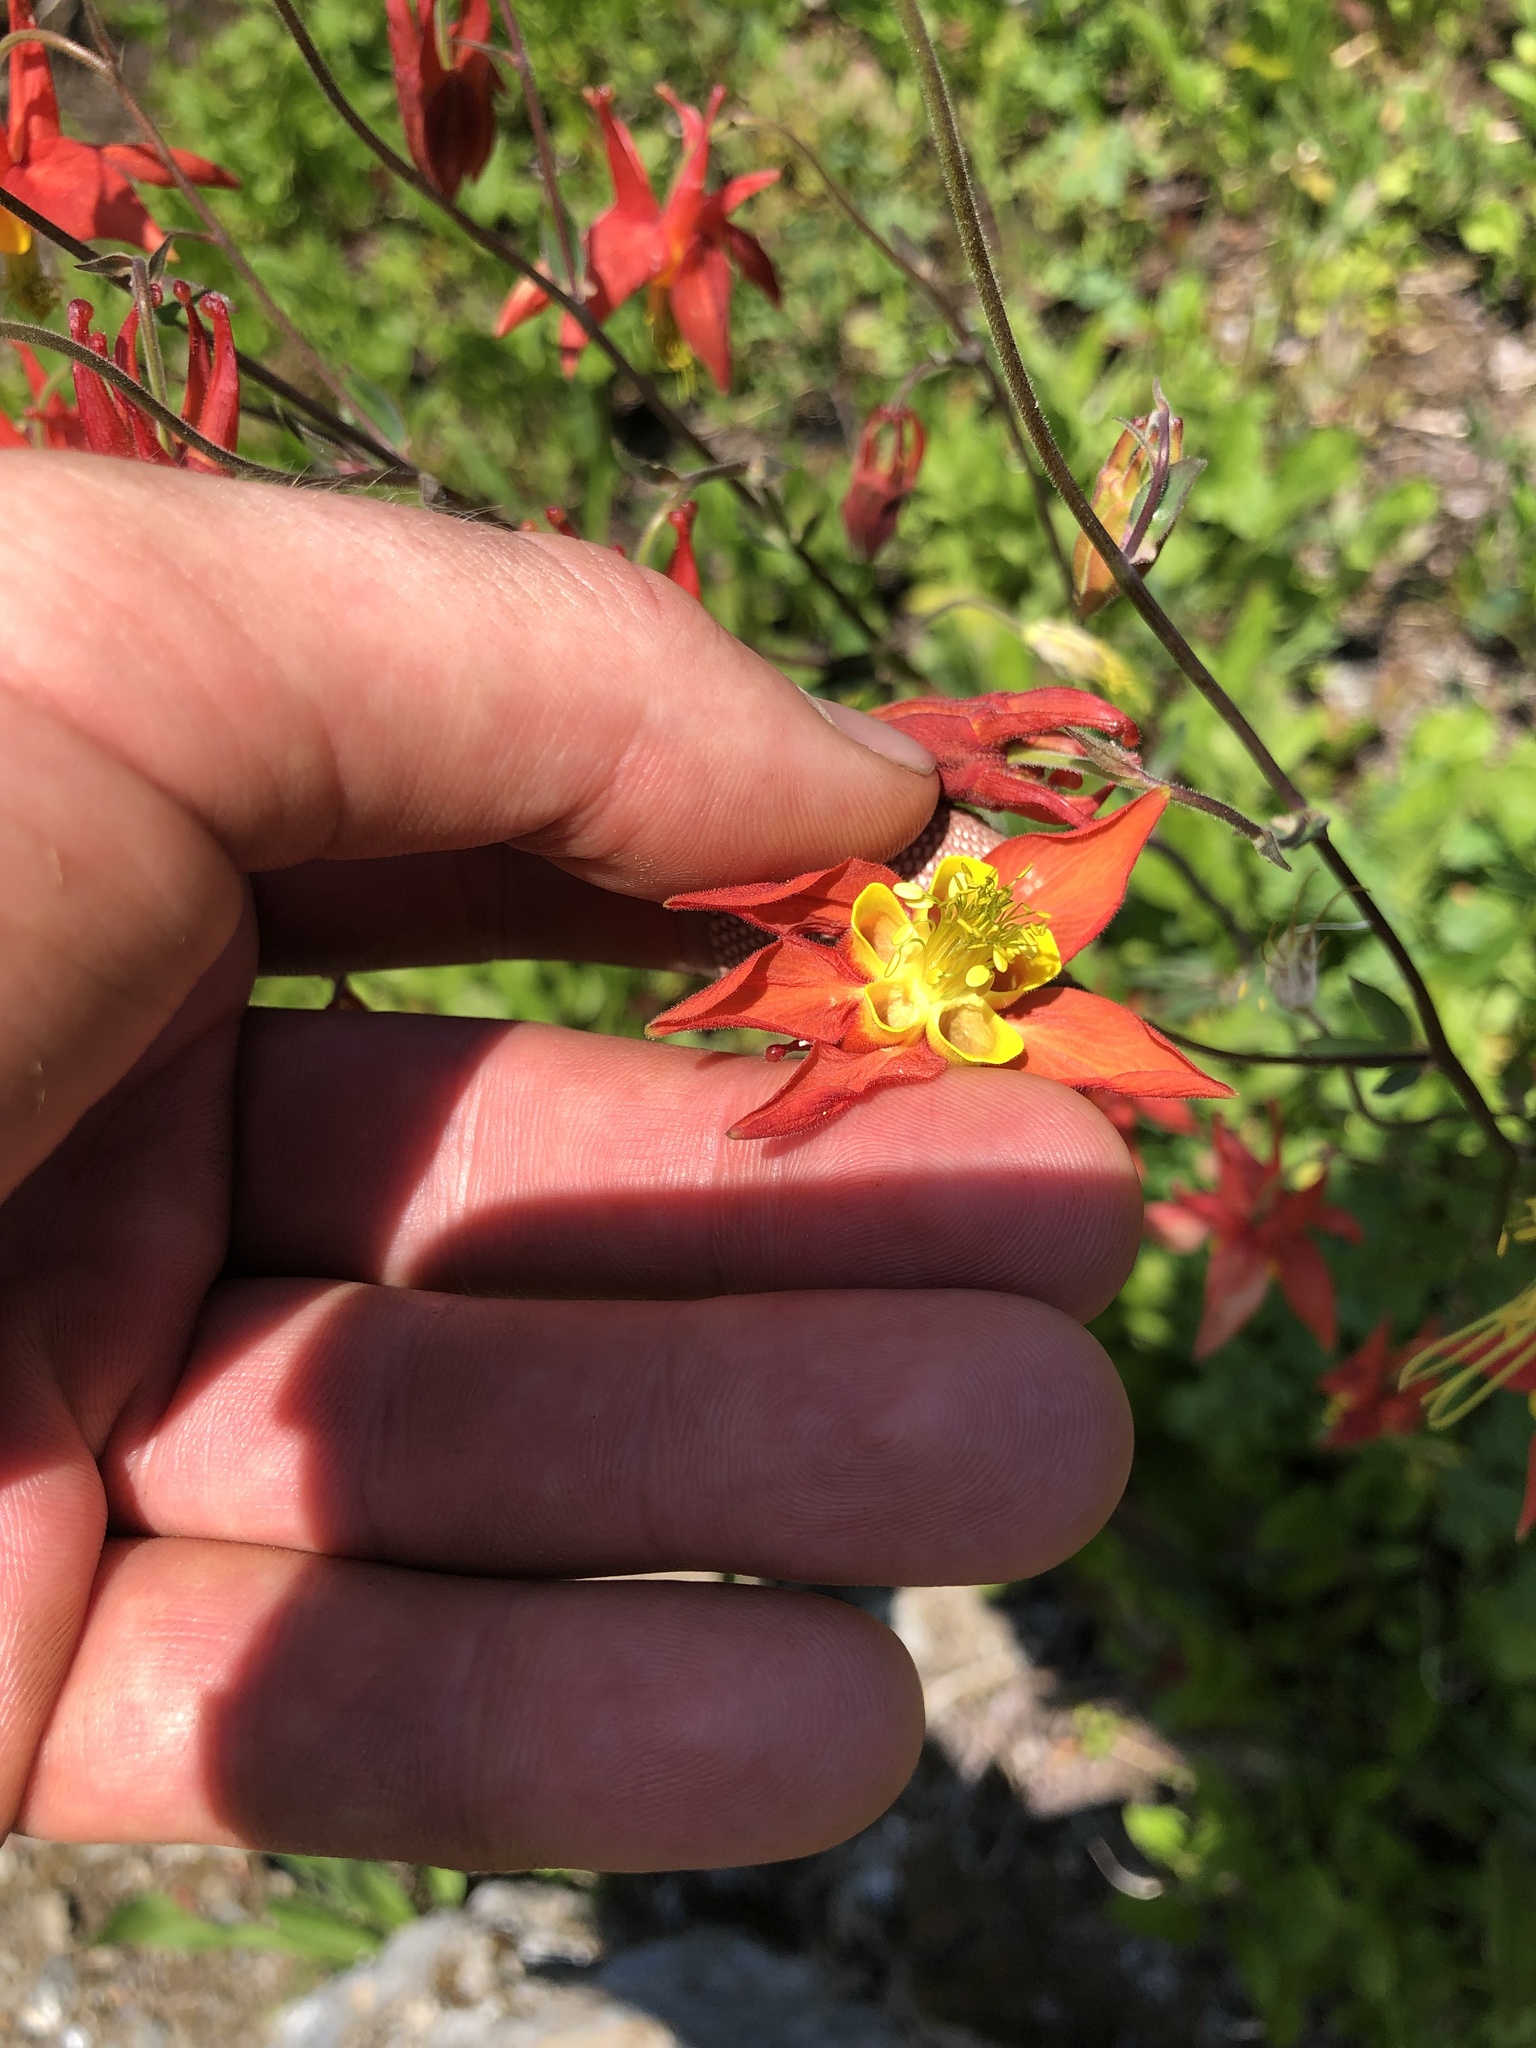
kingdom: Plantae
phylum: Tracheophyta
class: Magnoliopsida
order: Ranunculales
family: Ranunculaceae
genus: Aquilegia
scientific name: Aquilegia formosa
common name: Sitka columbine
